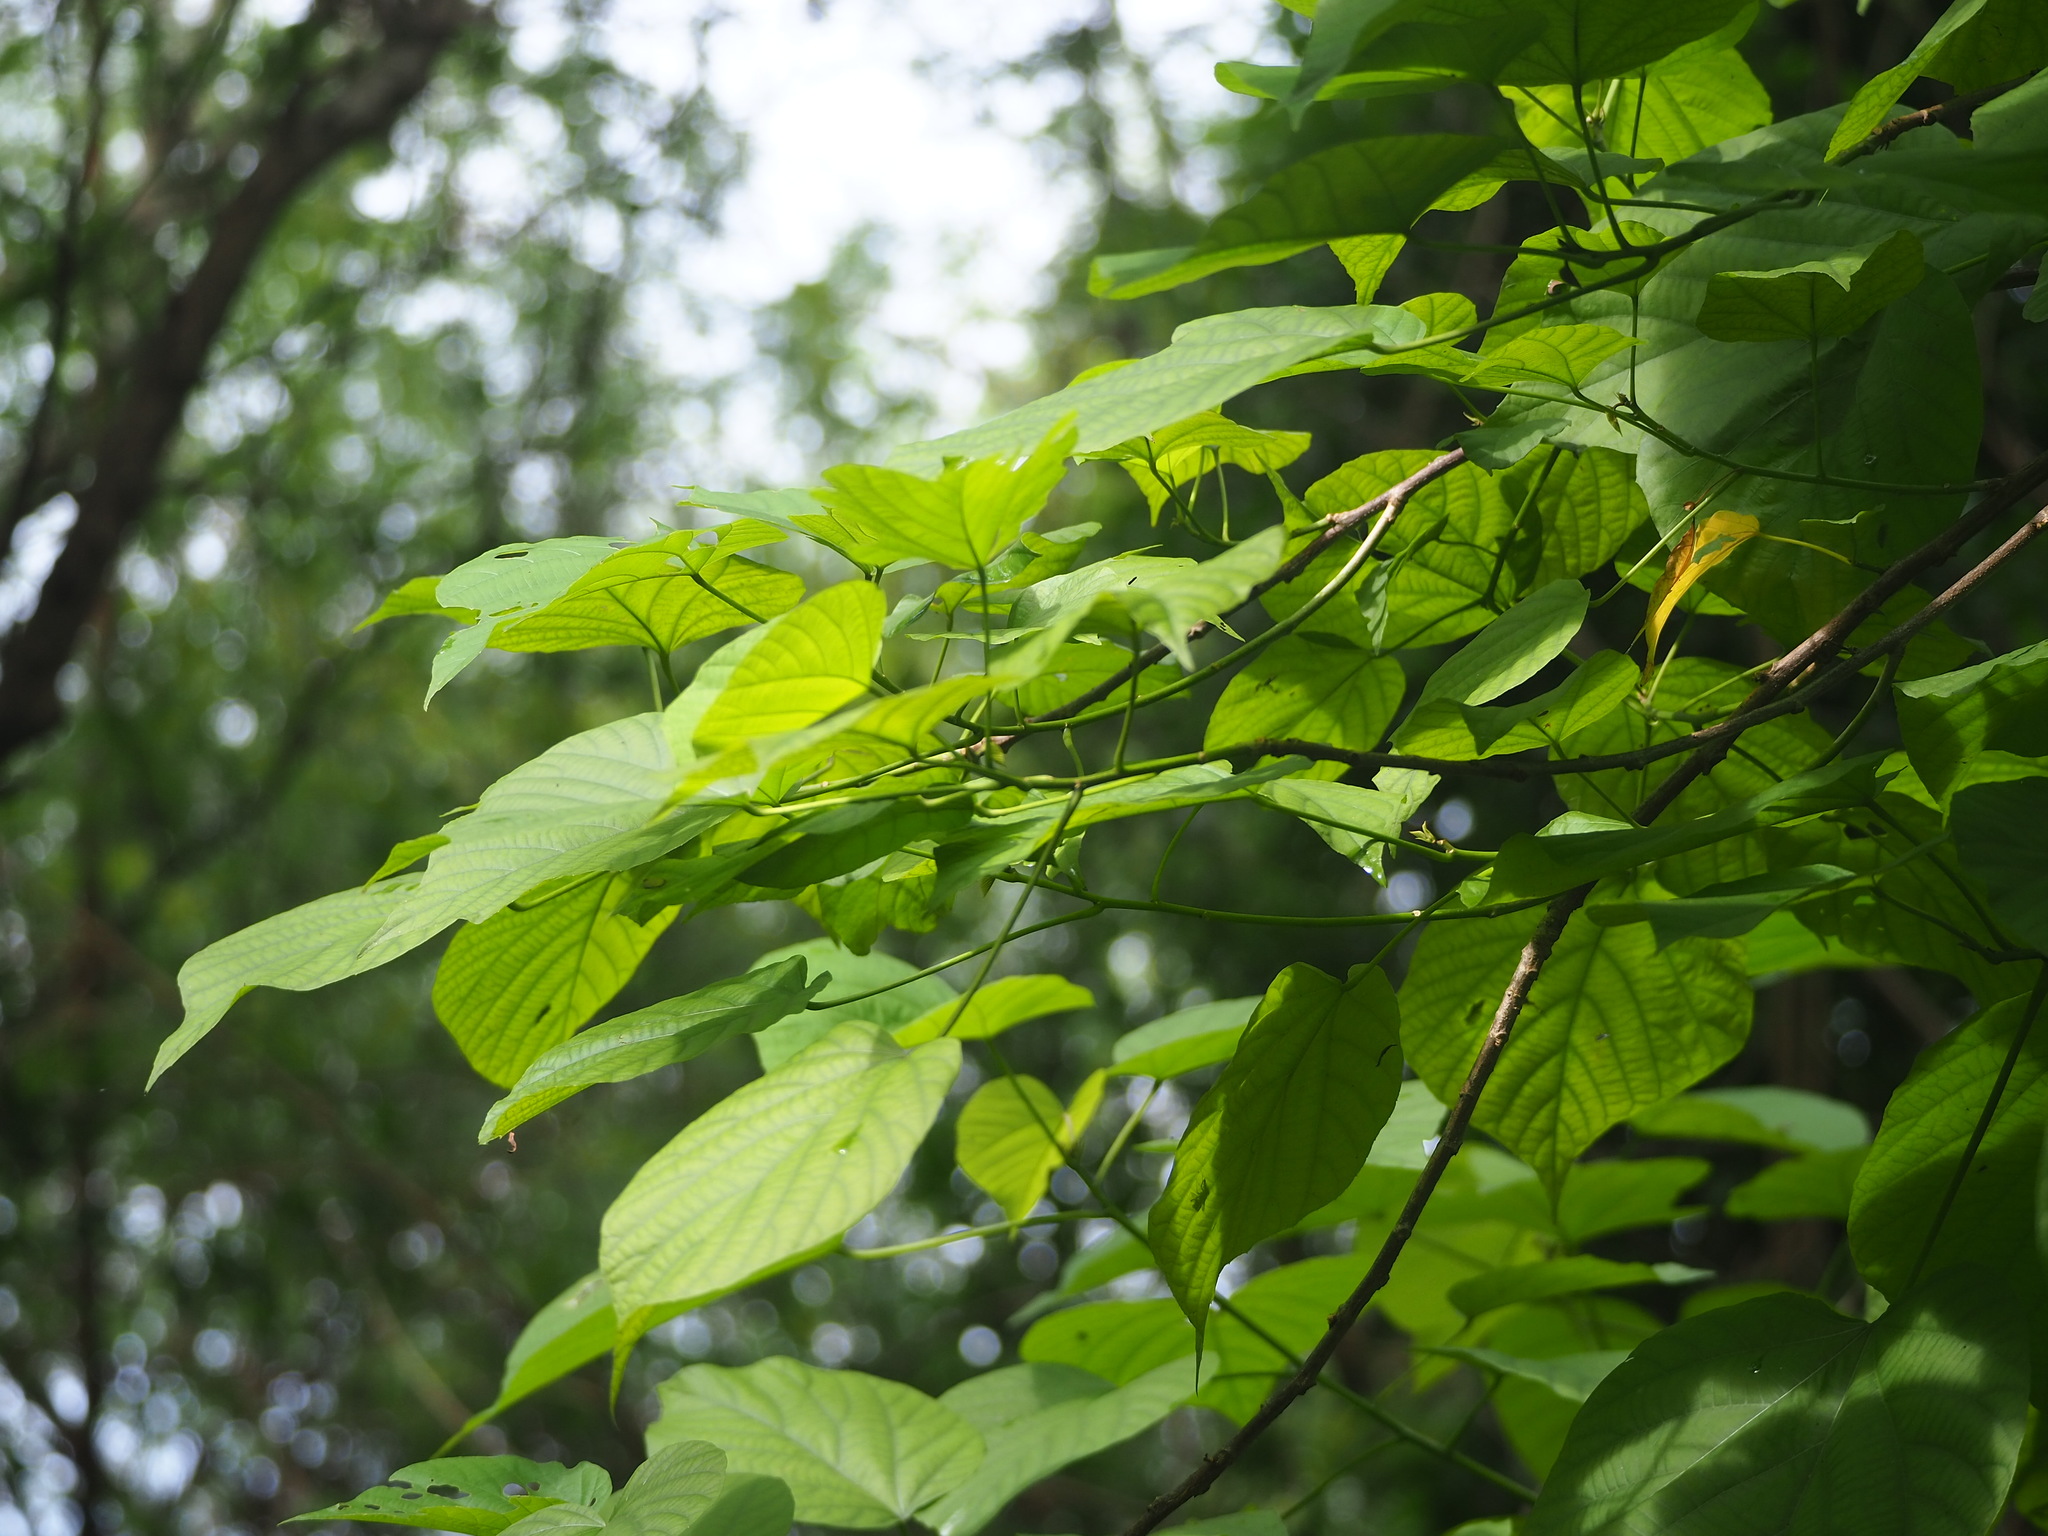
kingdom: Plantae
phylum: Tracheophyta
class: Magnoliopsida
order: Malvales
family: Malvaceae
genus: Kleinhovia
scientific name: Kleinhovia hospita
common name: Guest-tree
